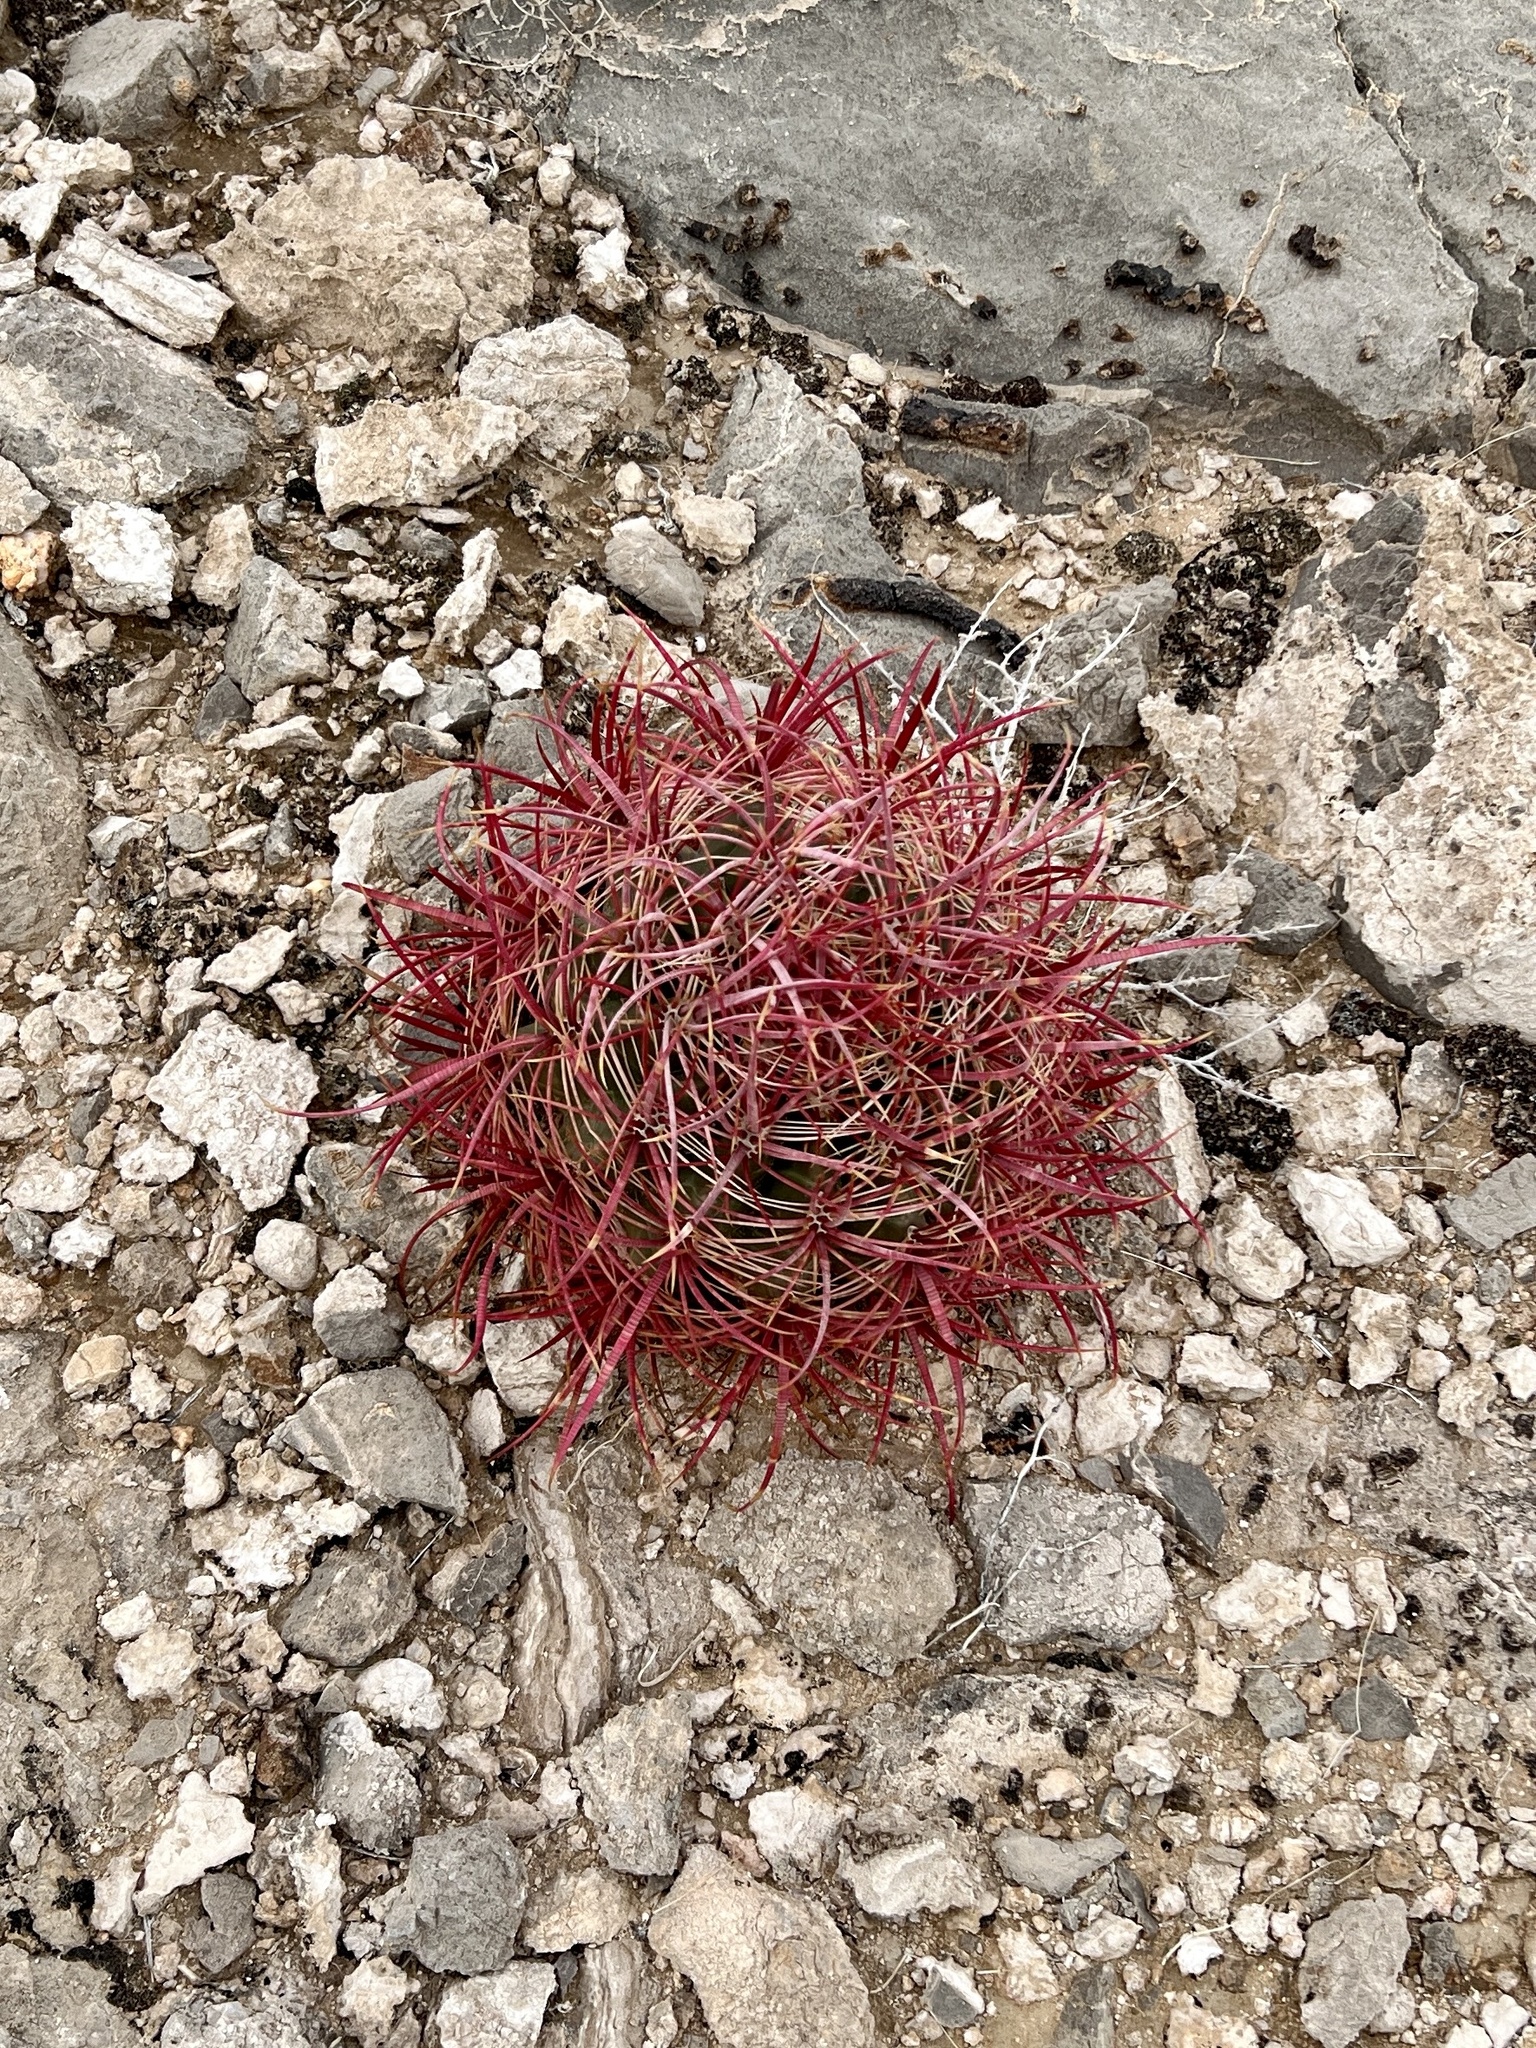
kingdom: Plantae
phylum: Tracheophyta
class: Magnoliopsida
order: Caryophyllales
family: Cactaceae
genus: Ferocactus
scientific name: Ferocactus cylindraceus
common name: California barrel cactus
